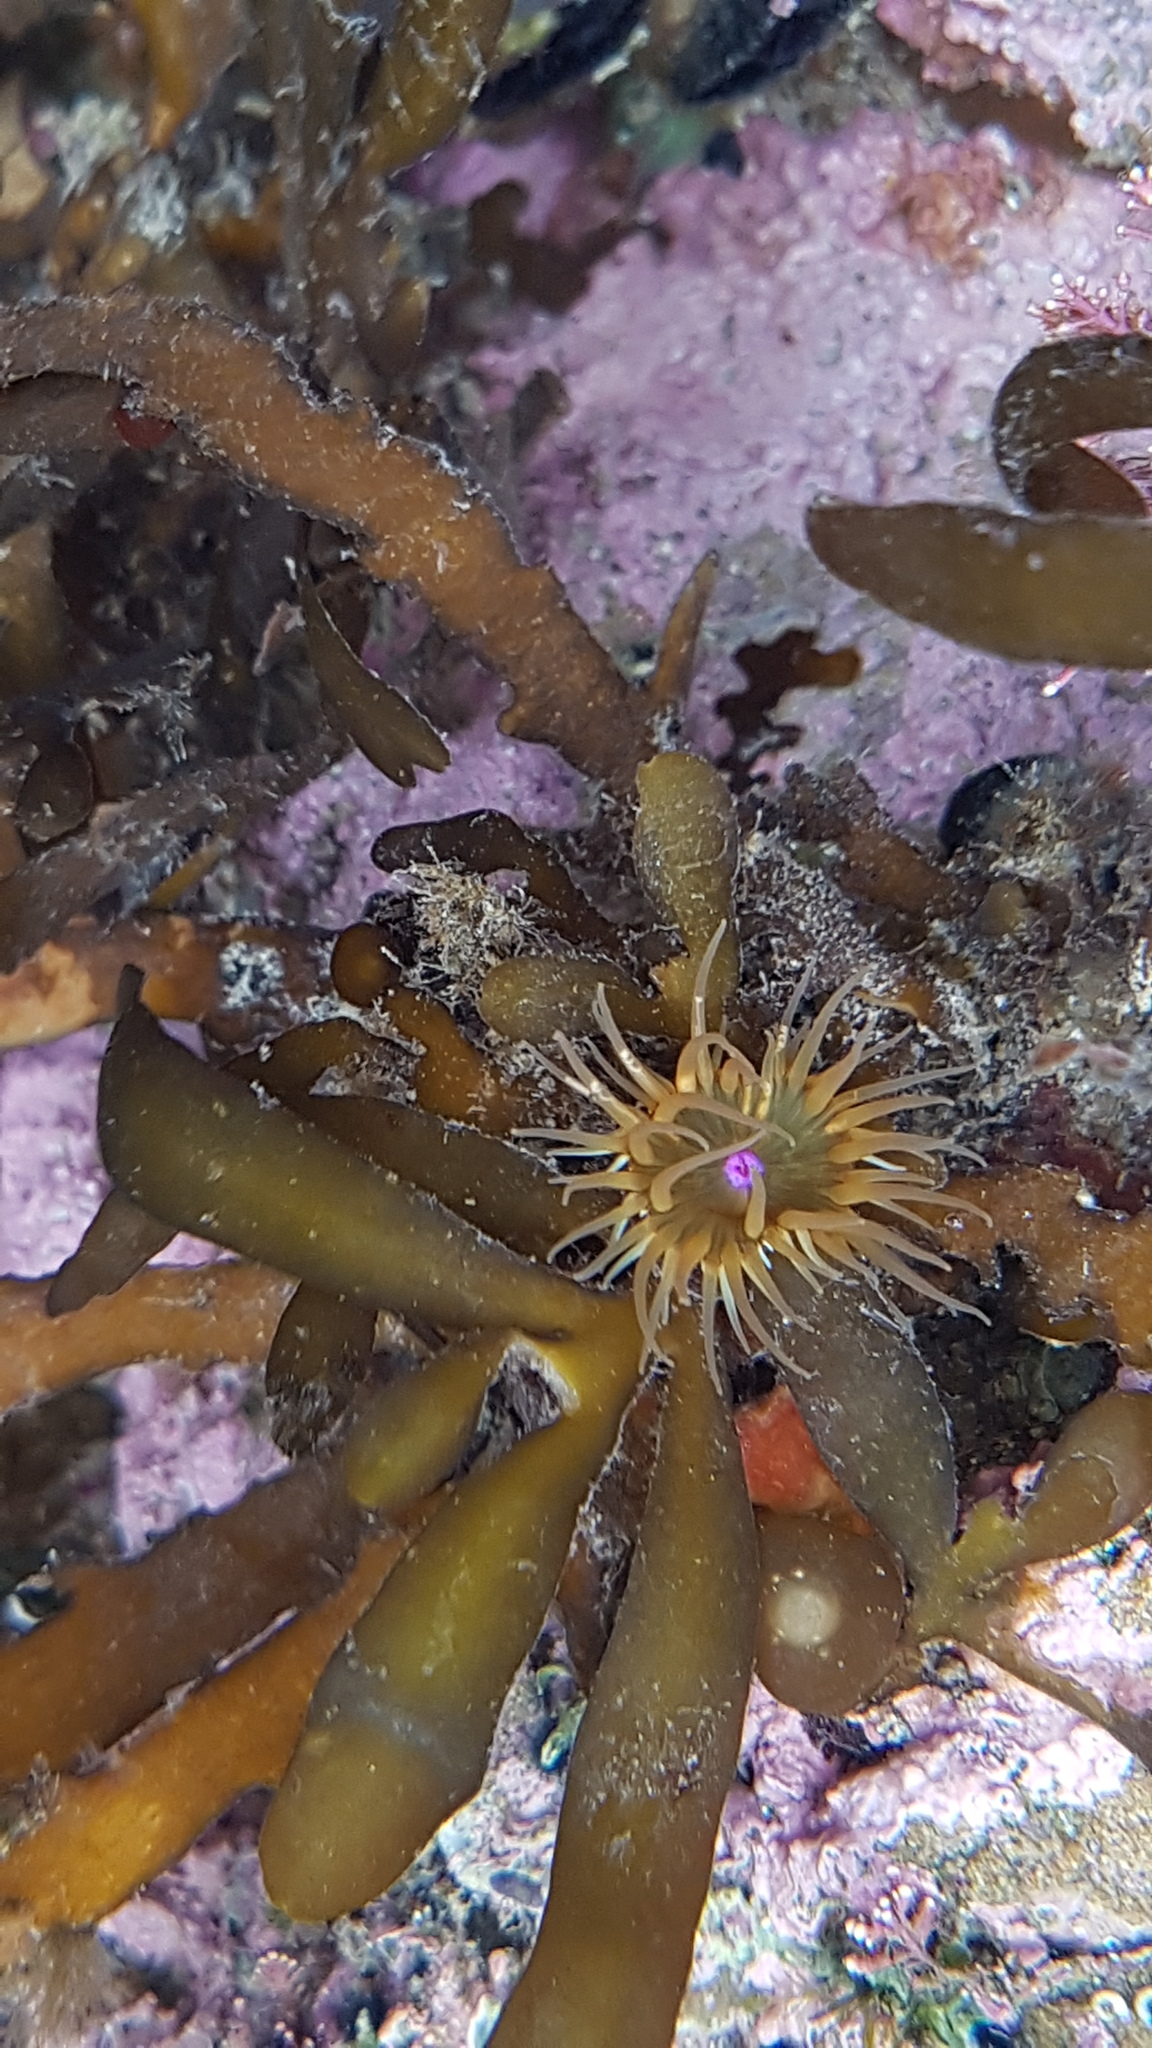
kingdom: Animalia
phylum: Cnidaria
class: Anthozoa
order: Actiniaria
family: Hormathiidae
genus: Handactis
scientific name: Handactis nutrix
